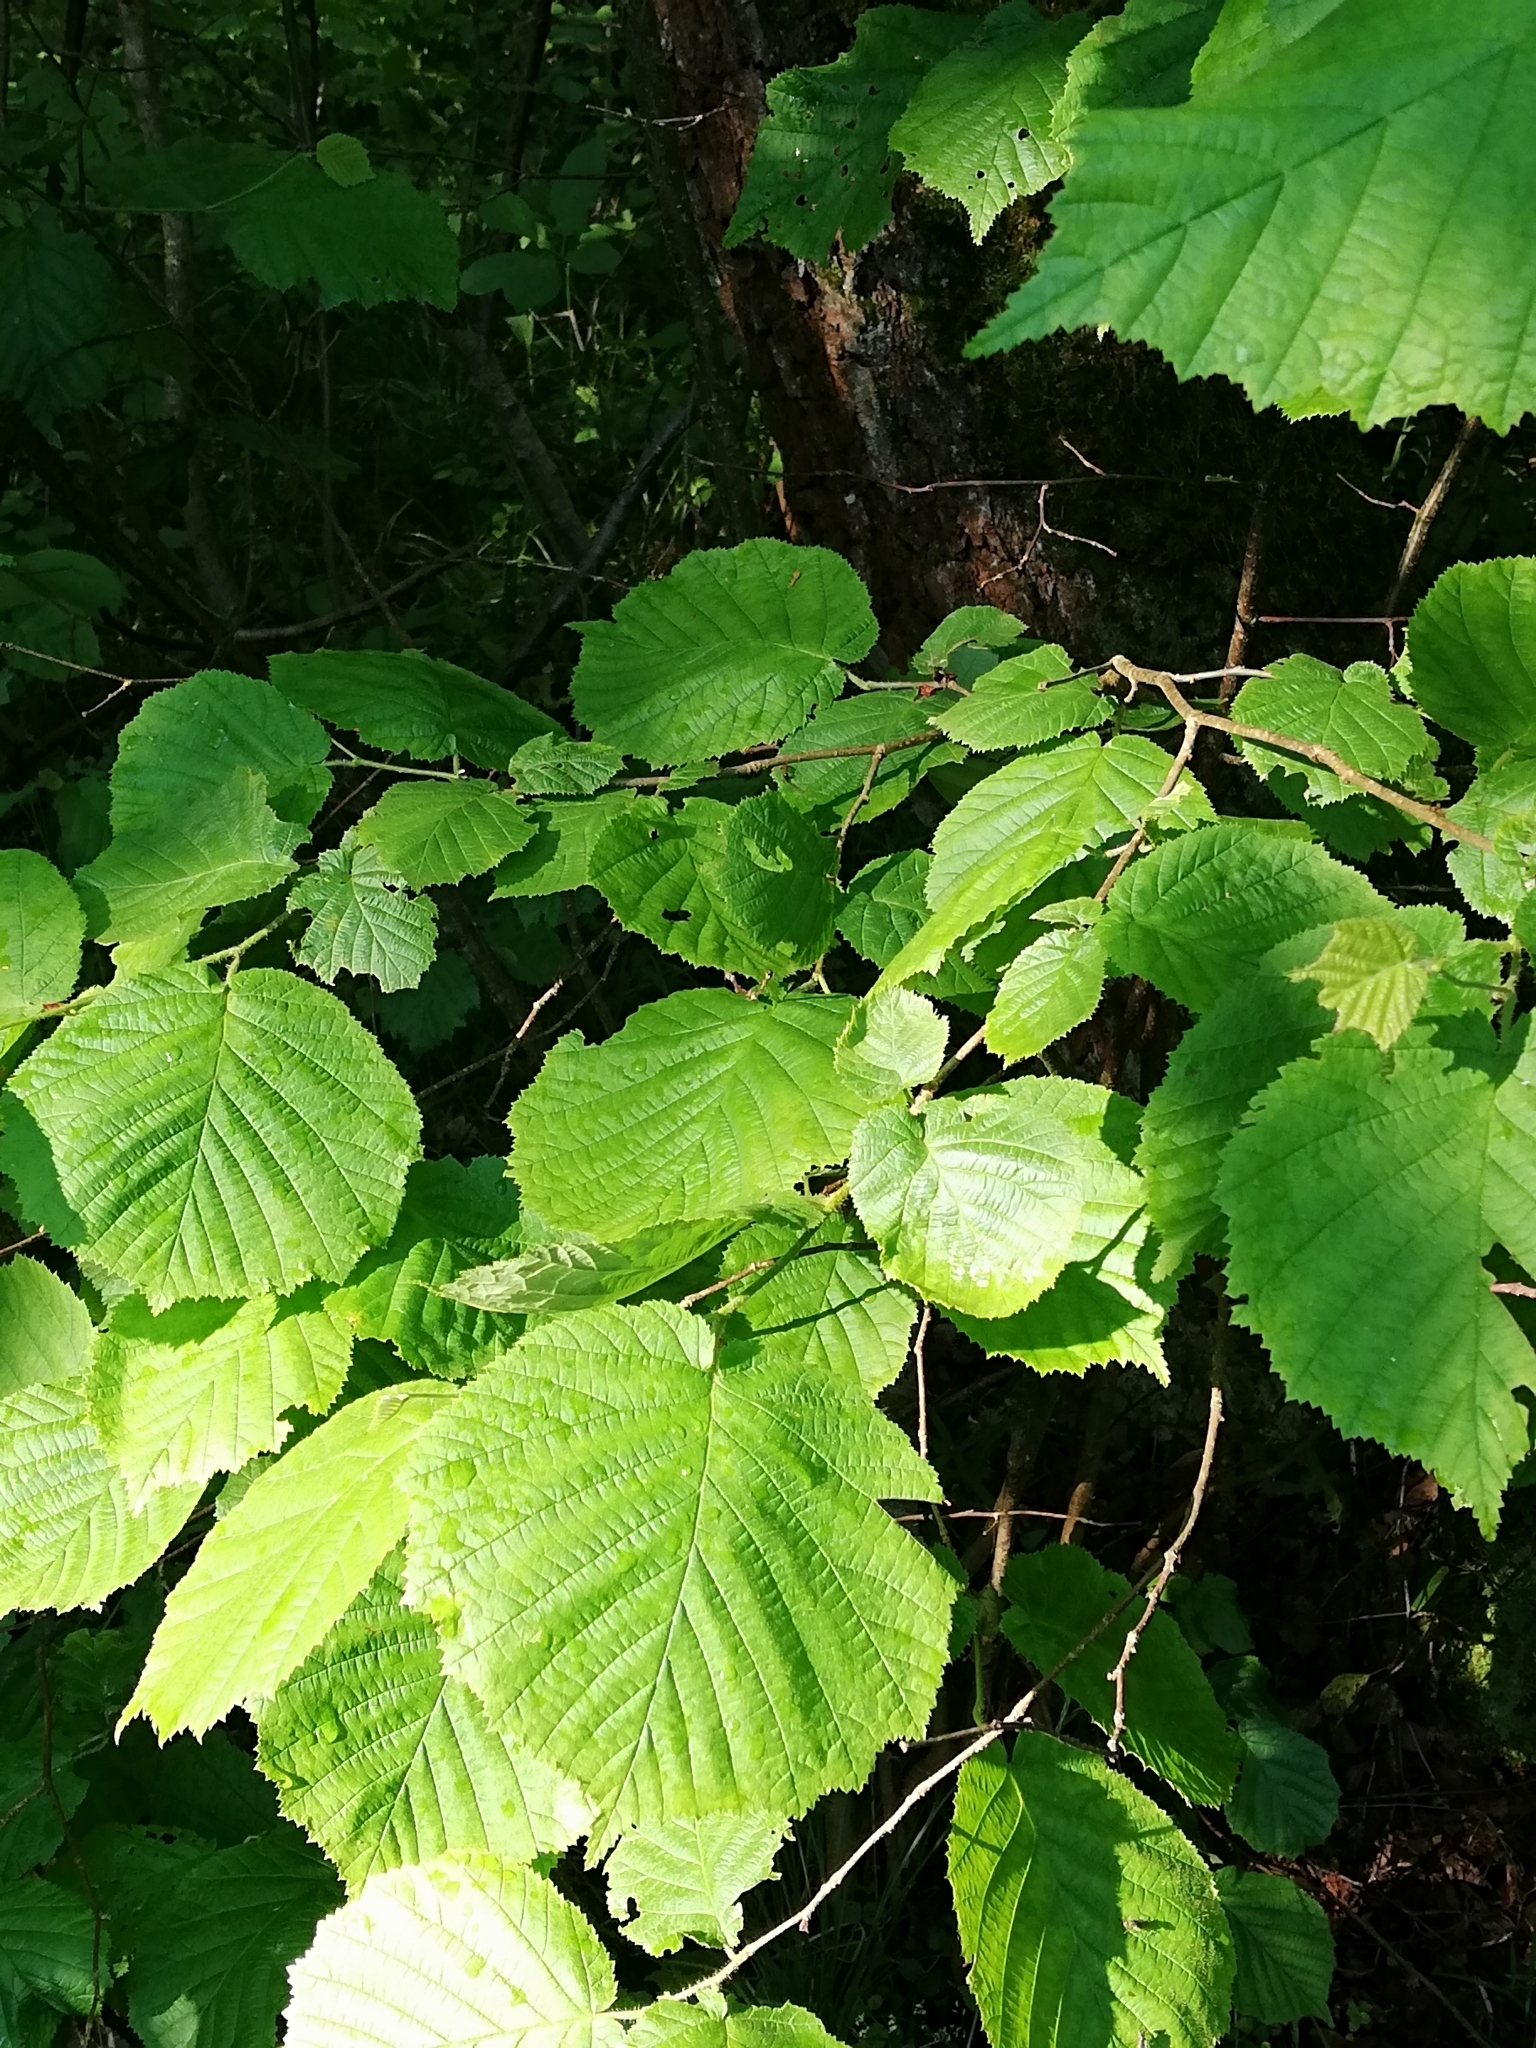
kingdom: Plantae
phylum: Tracheophyta
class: Magnoliopsida
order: Fagales
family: Betulaceae
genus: Corylus
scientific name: Corylus avellana
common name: European hazel
